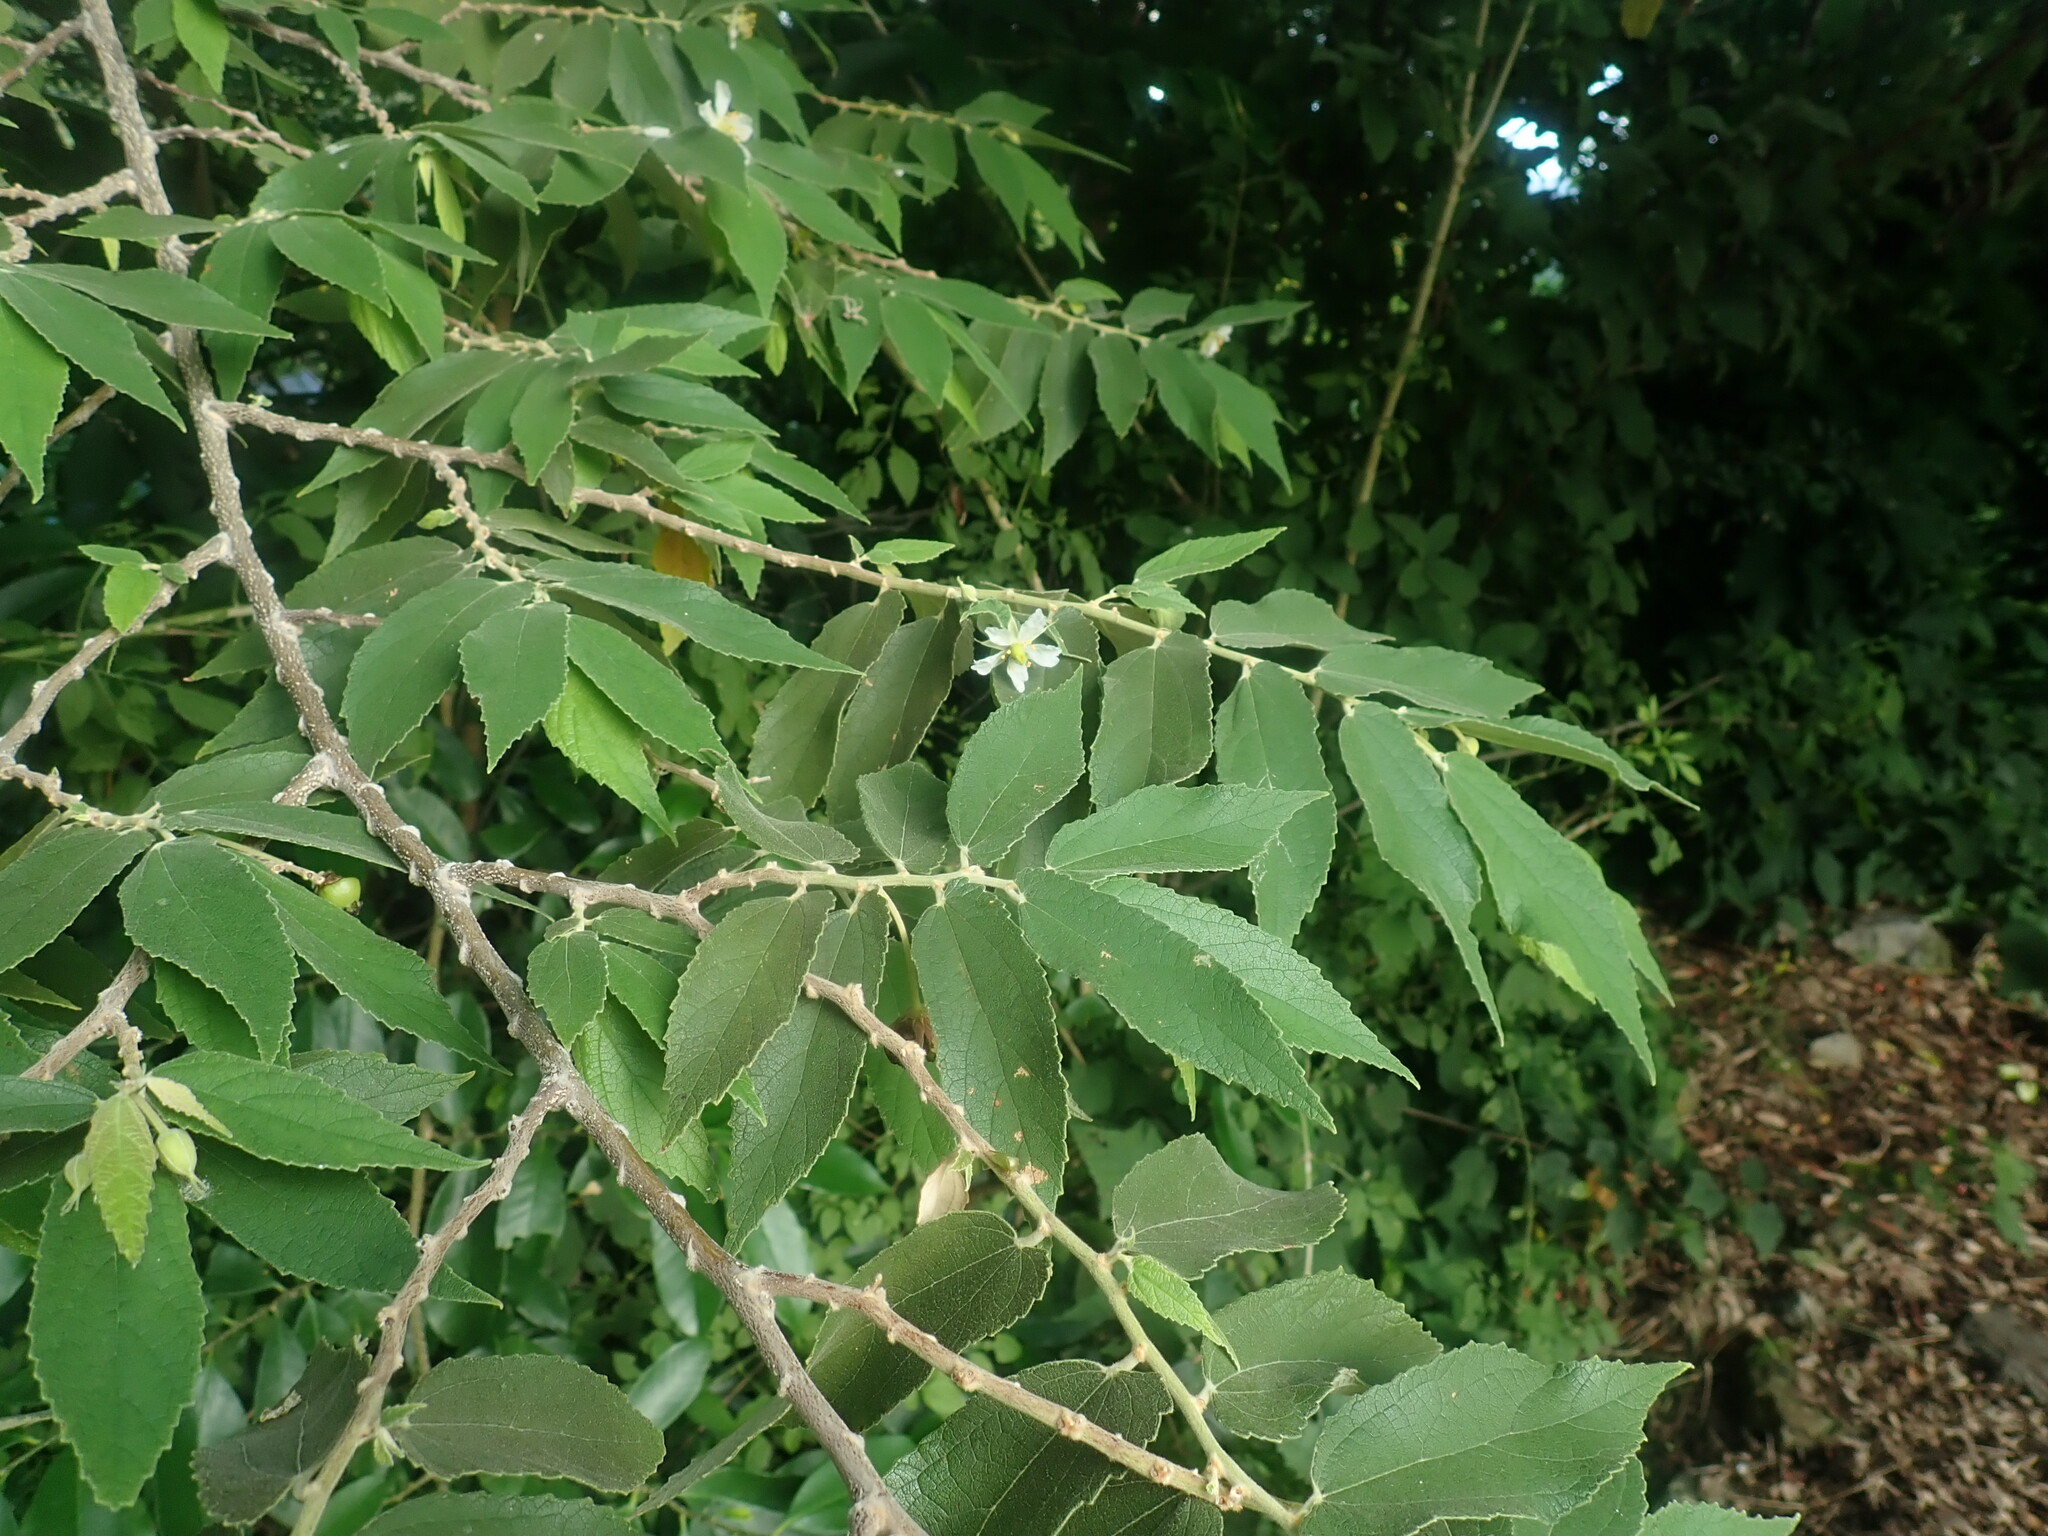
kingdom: Plantae
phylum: Tracheophyta
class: Magnoliopsida
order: Malvales
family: Muntingiaceae
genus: Muntingia
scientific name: Muntingia calabura
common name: Strawberrytree
